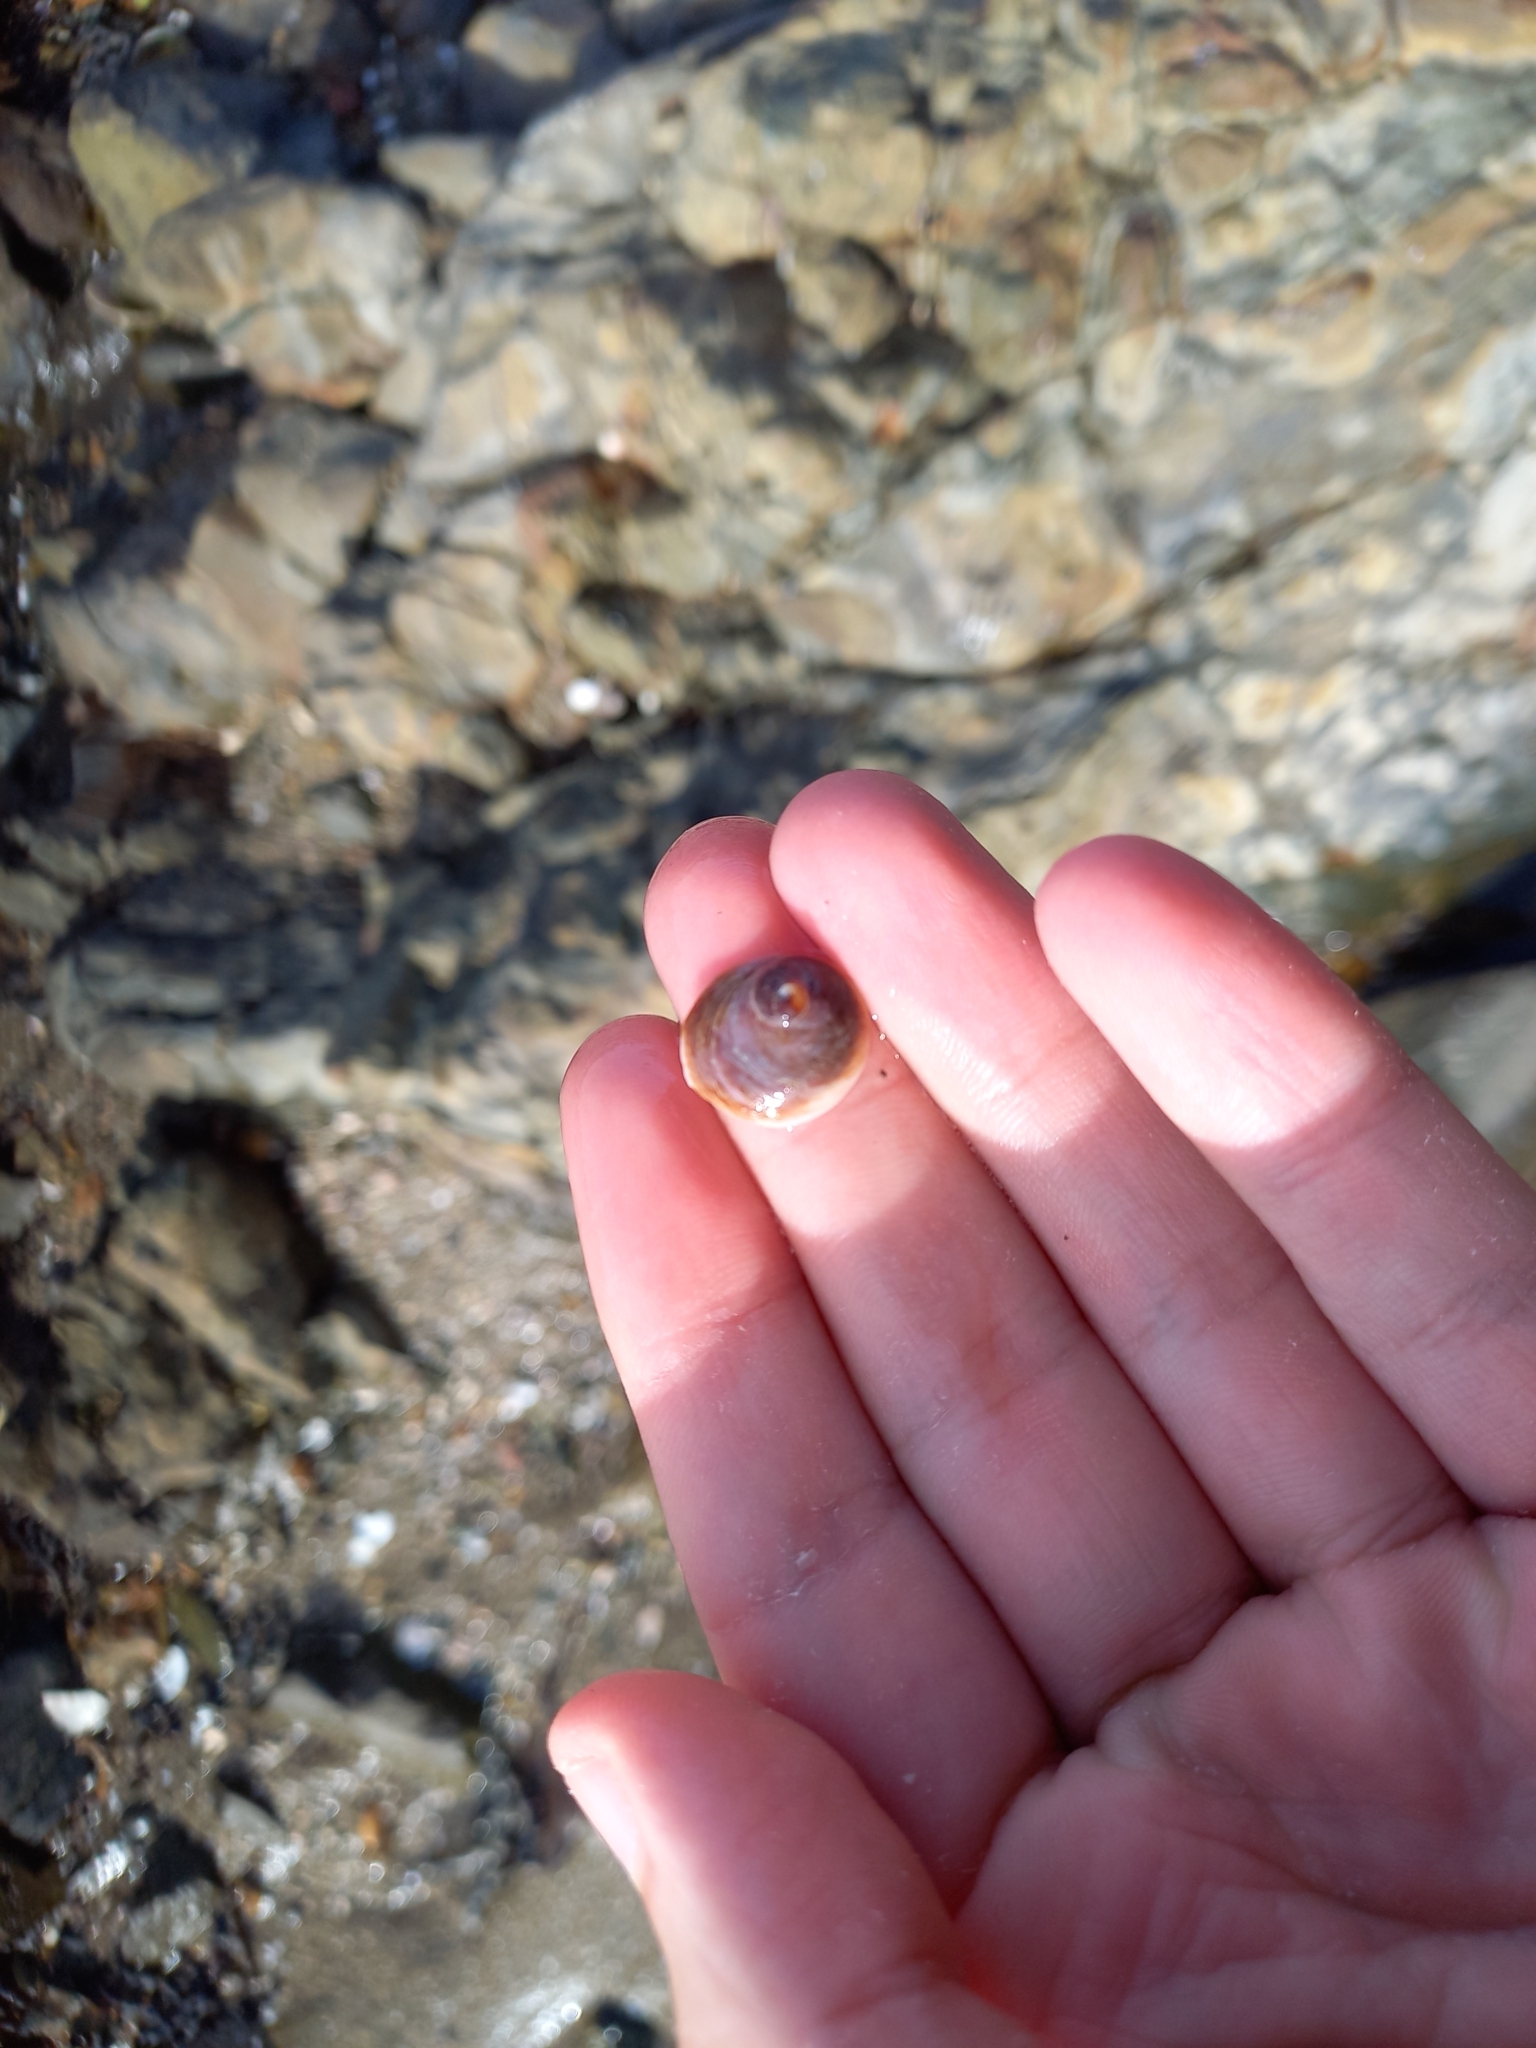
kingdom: Animalia
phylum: Mollusca
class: Gastropoda
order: Littorinimorpha
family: Calyptraeidae
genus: Sigapatella
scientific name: Sigapatella novaezelandiae
